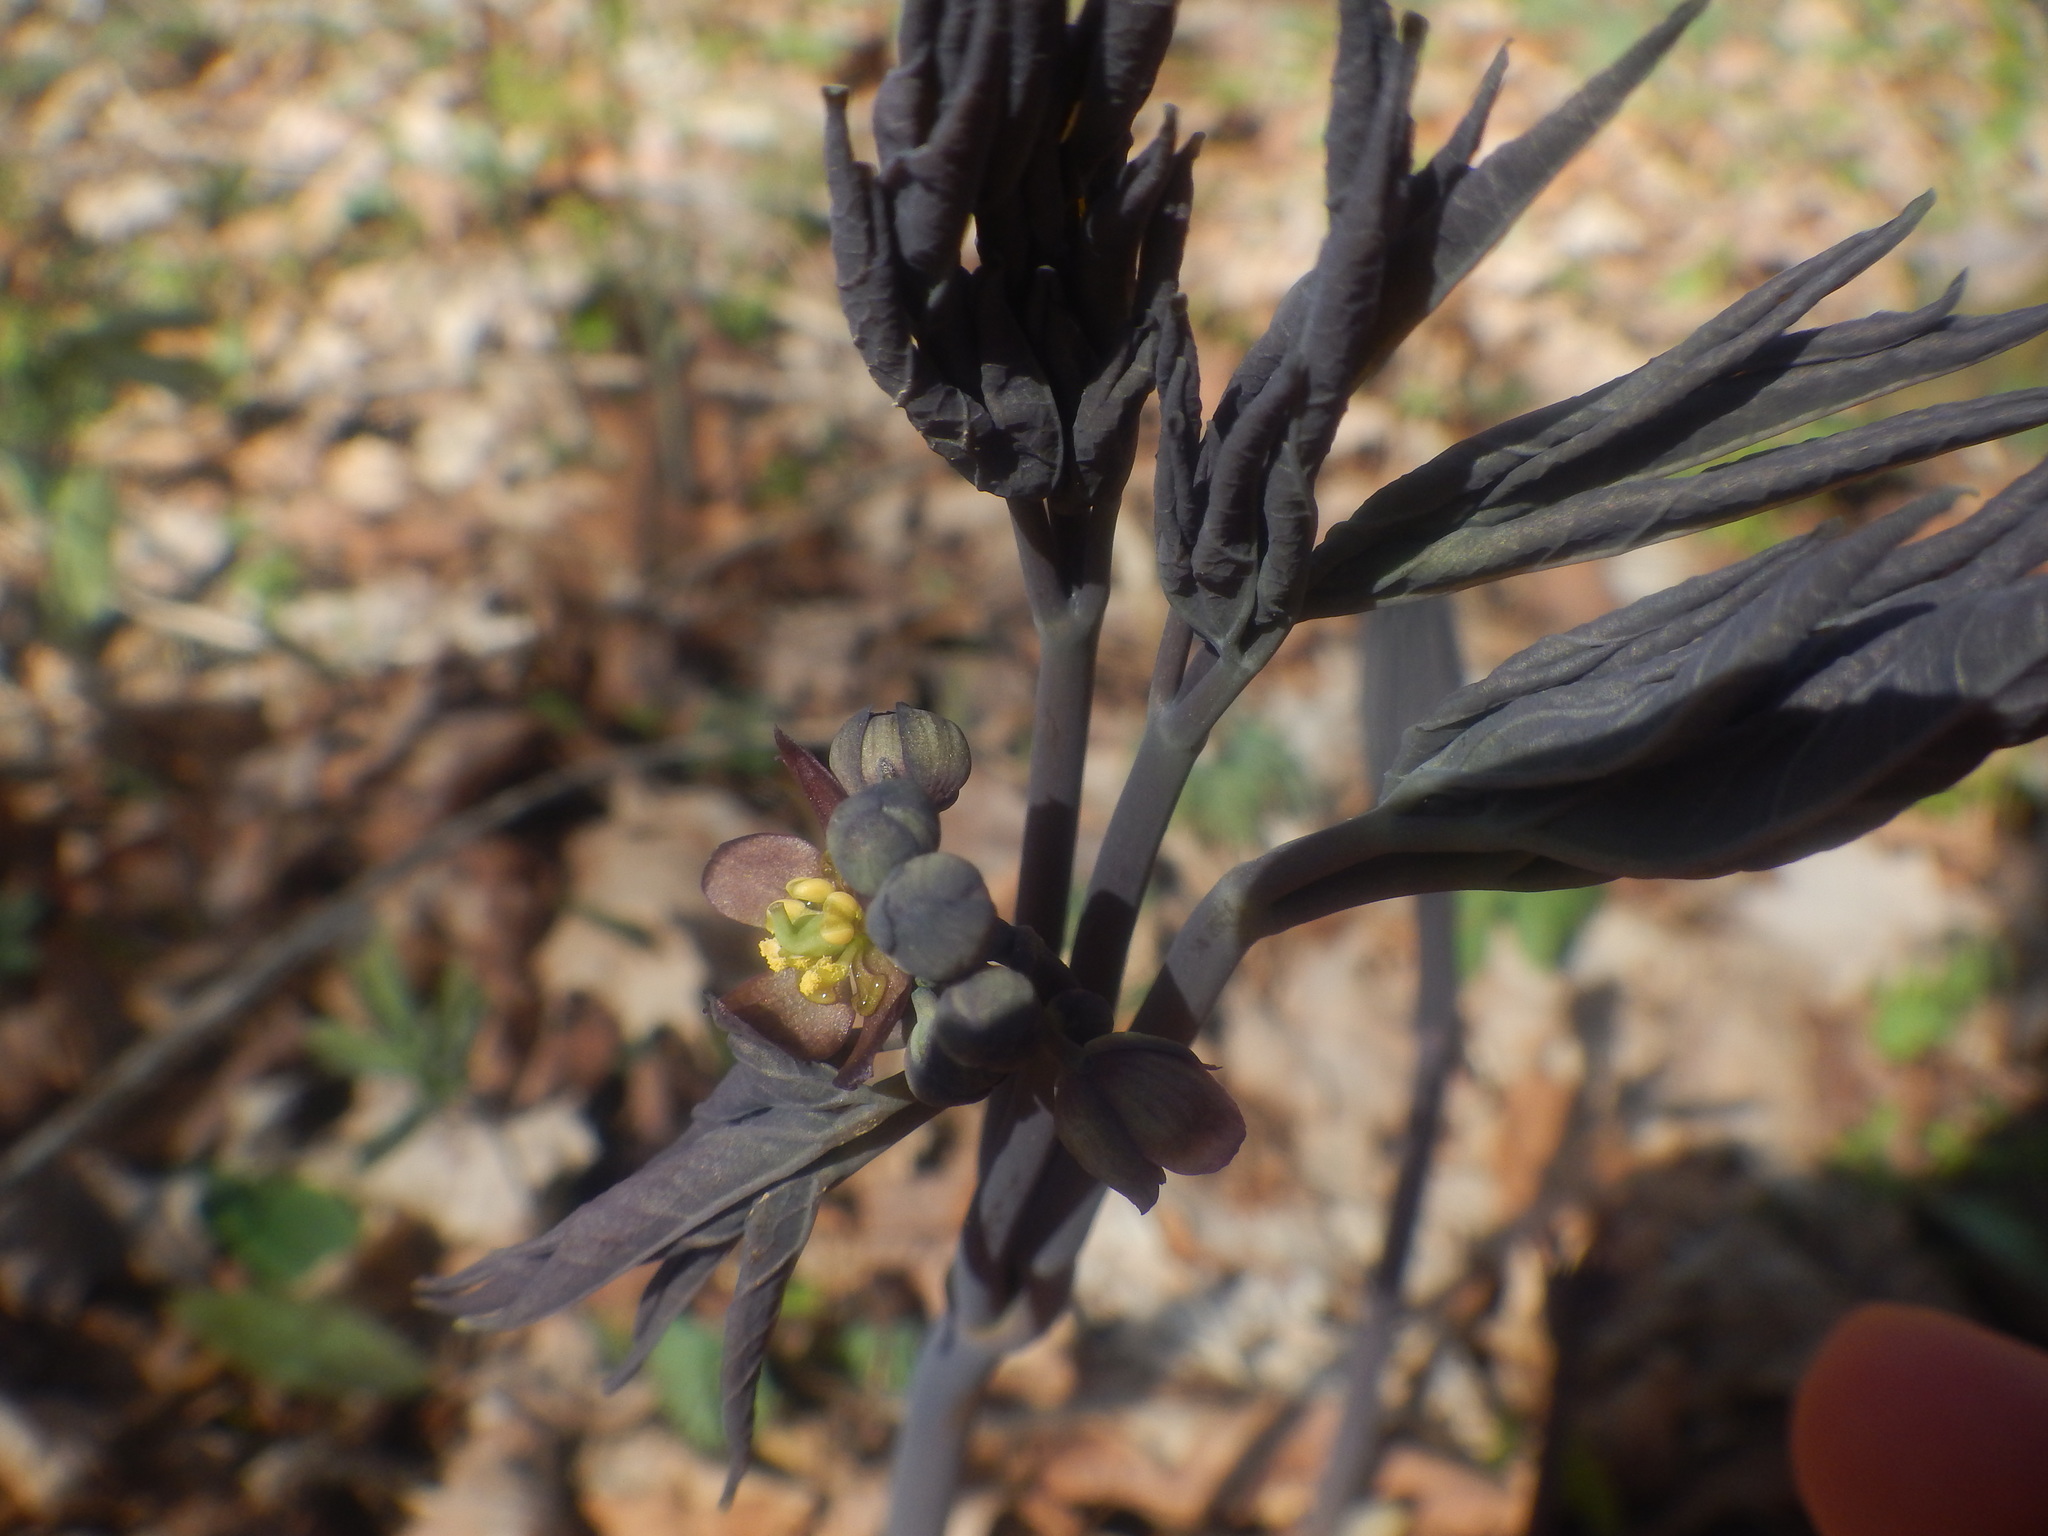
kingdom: Plantae
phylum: Tracheophyta
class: Magnoliopsida
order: Ranunculales
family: Berberidaceae
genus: Caulophyllum
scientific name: Caulophyllum giganteum
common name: Blue cohosh
